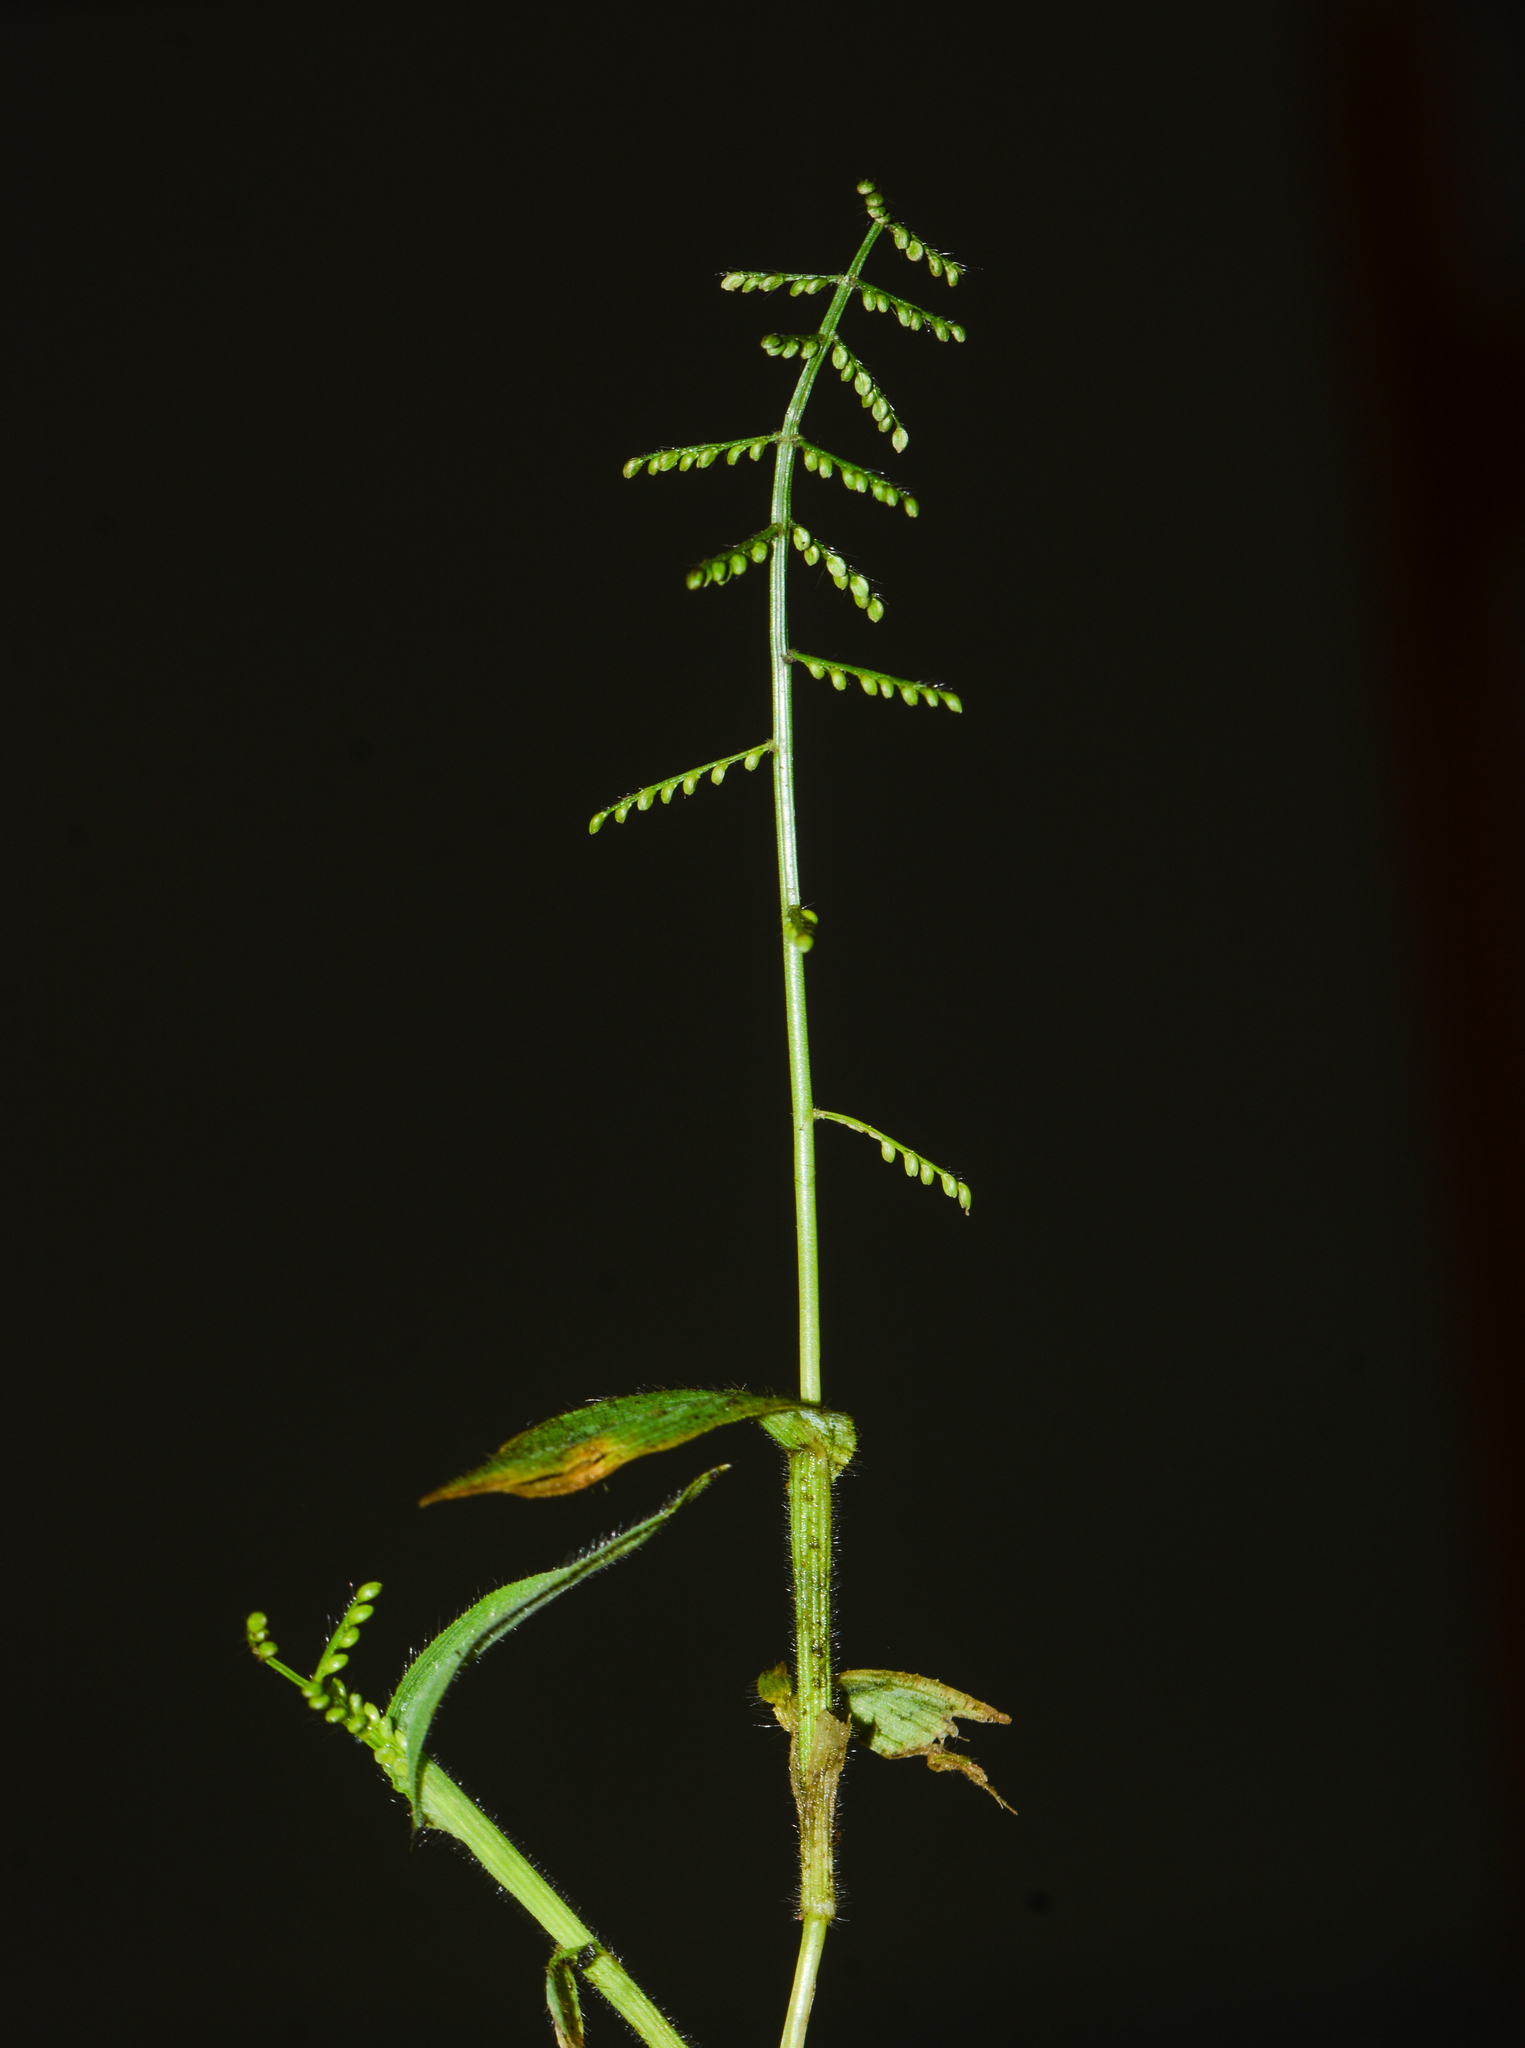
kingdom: Plantae
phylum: Tracheophyta
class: Liliopsida
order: Poales
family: Poaceae
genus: Paspalum
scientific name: Paspalum canarae
